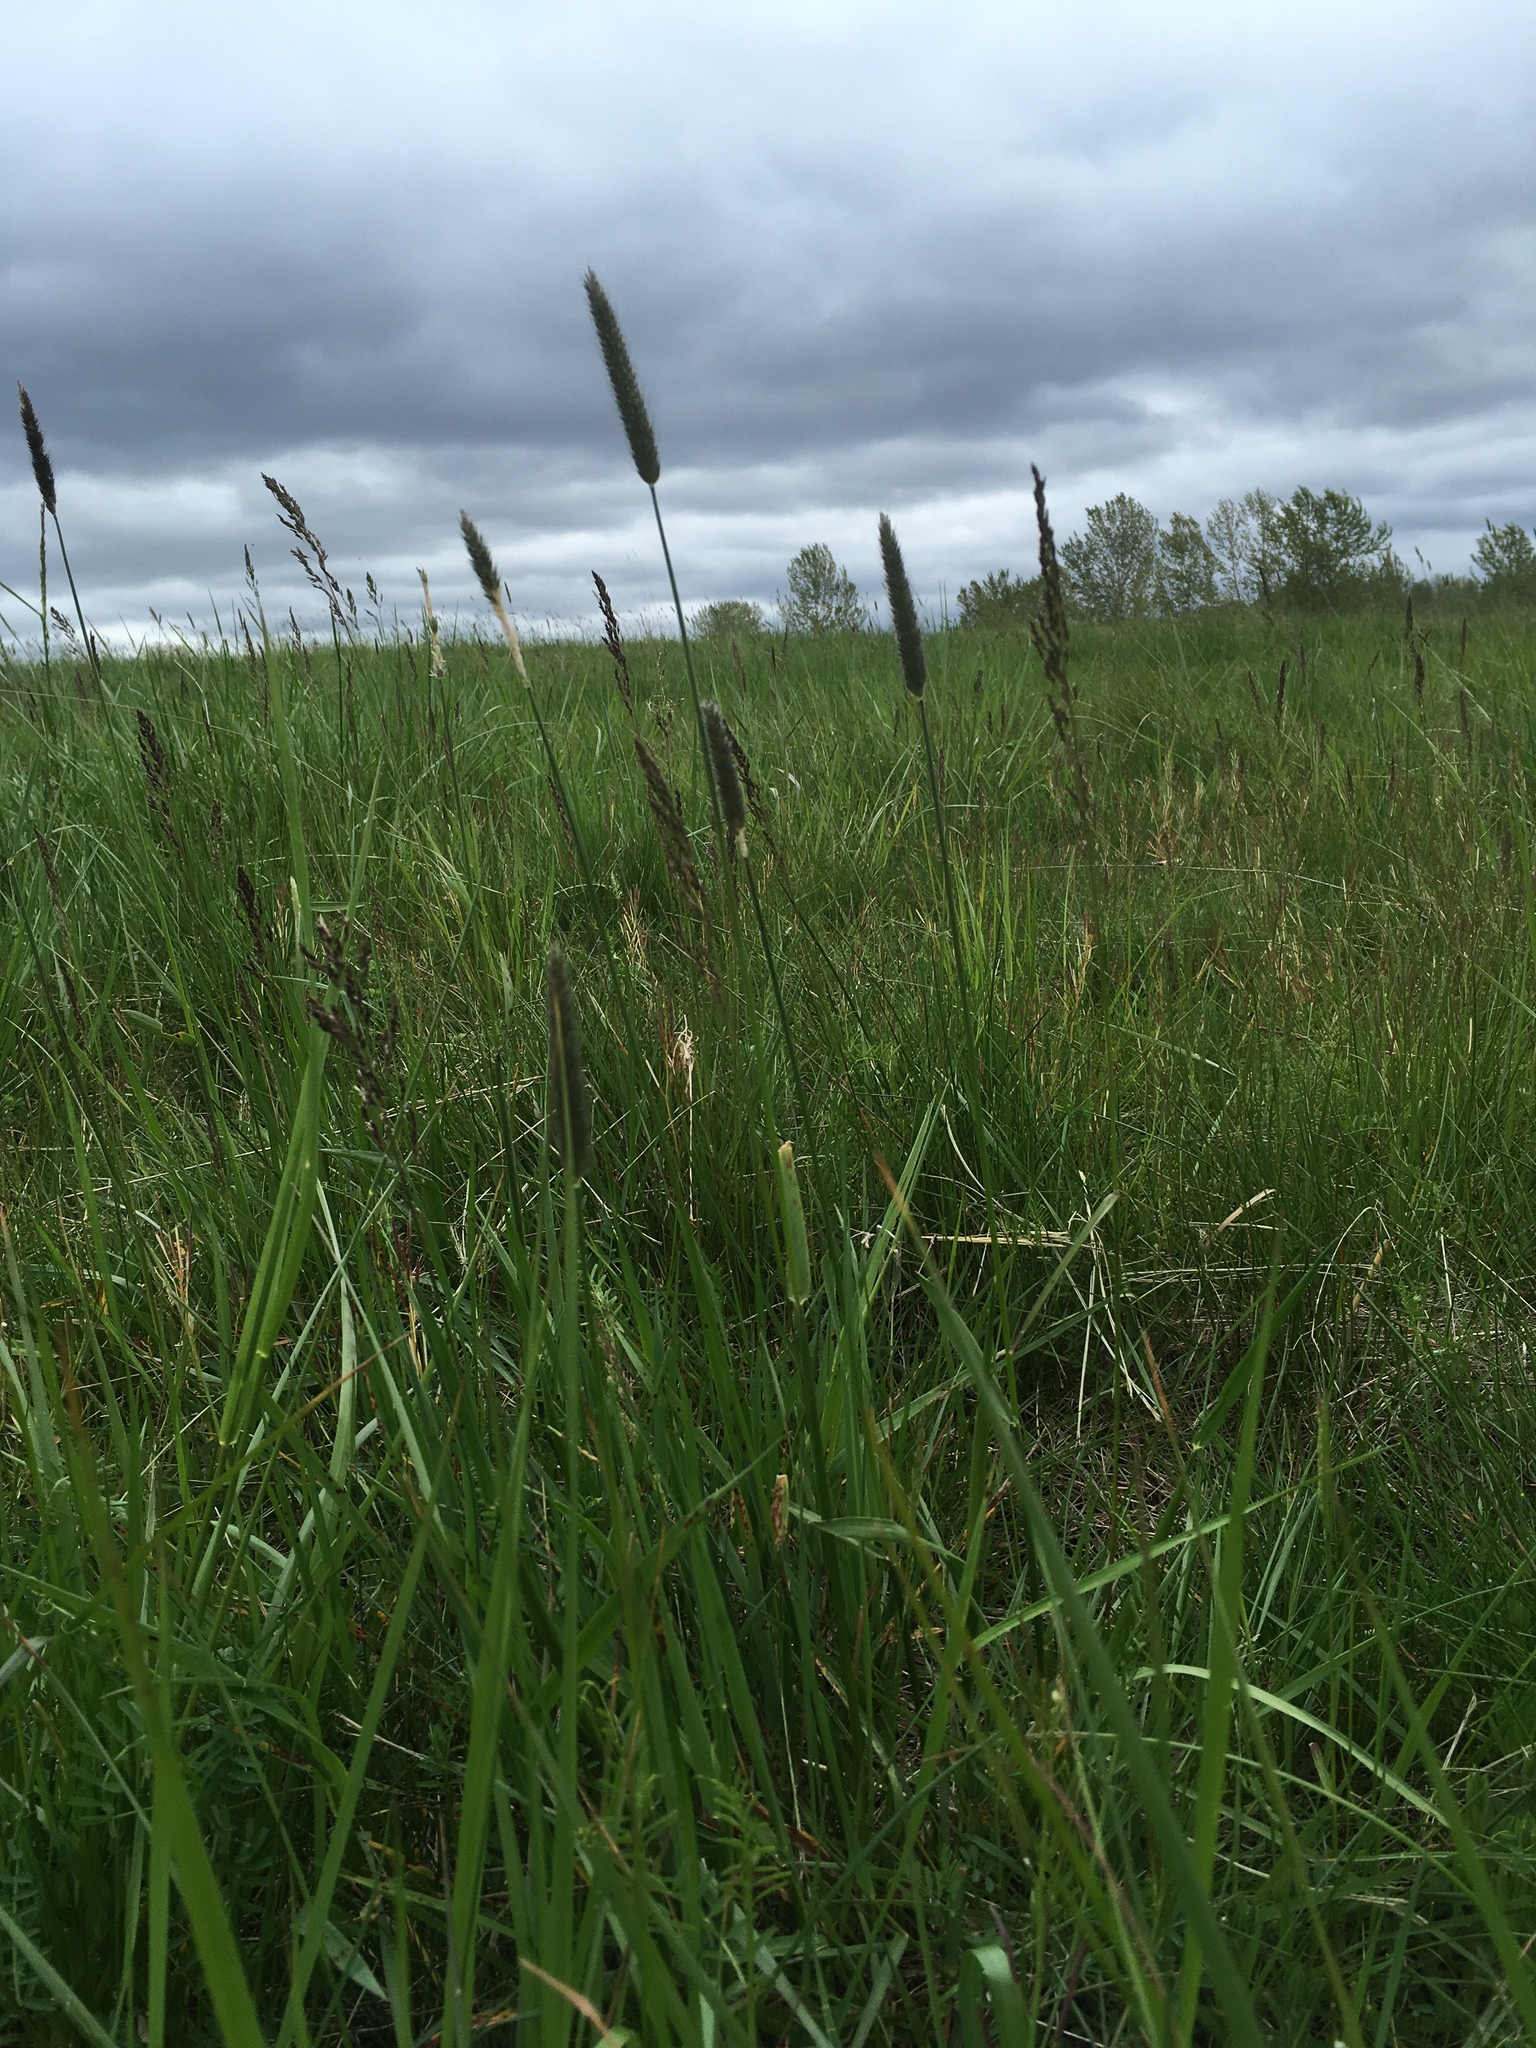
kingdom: Plantae
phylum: Tracheophyta
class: Liliopsida
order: Poales
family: Poaceae
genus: Alopecurus
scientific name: Alopecurus pratensis
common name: Meadow foxtail
